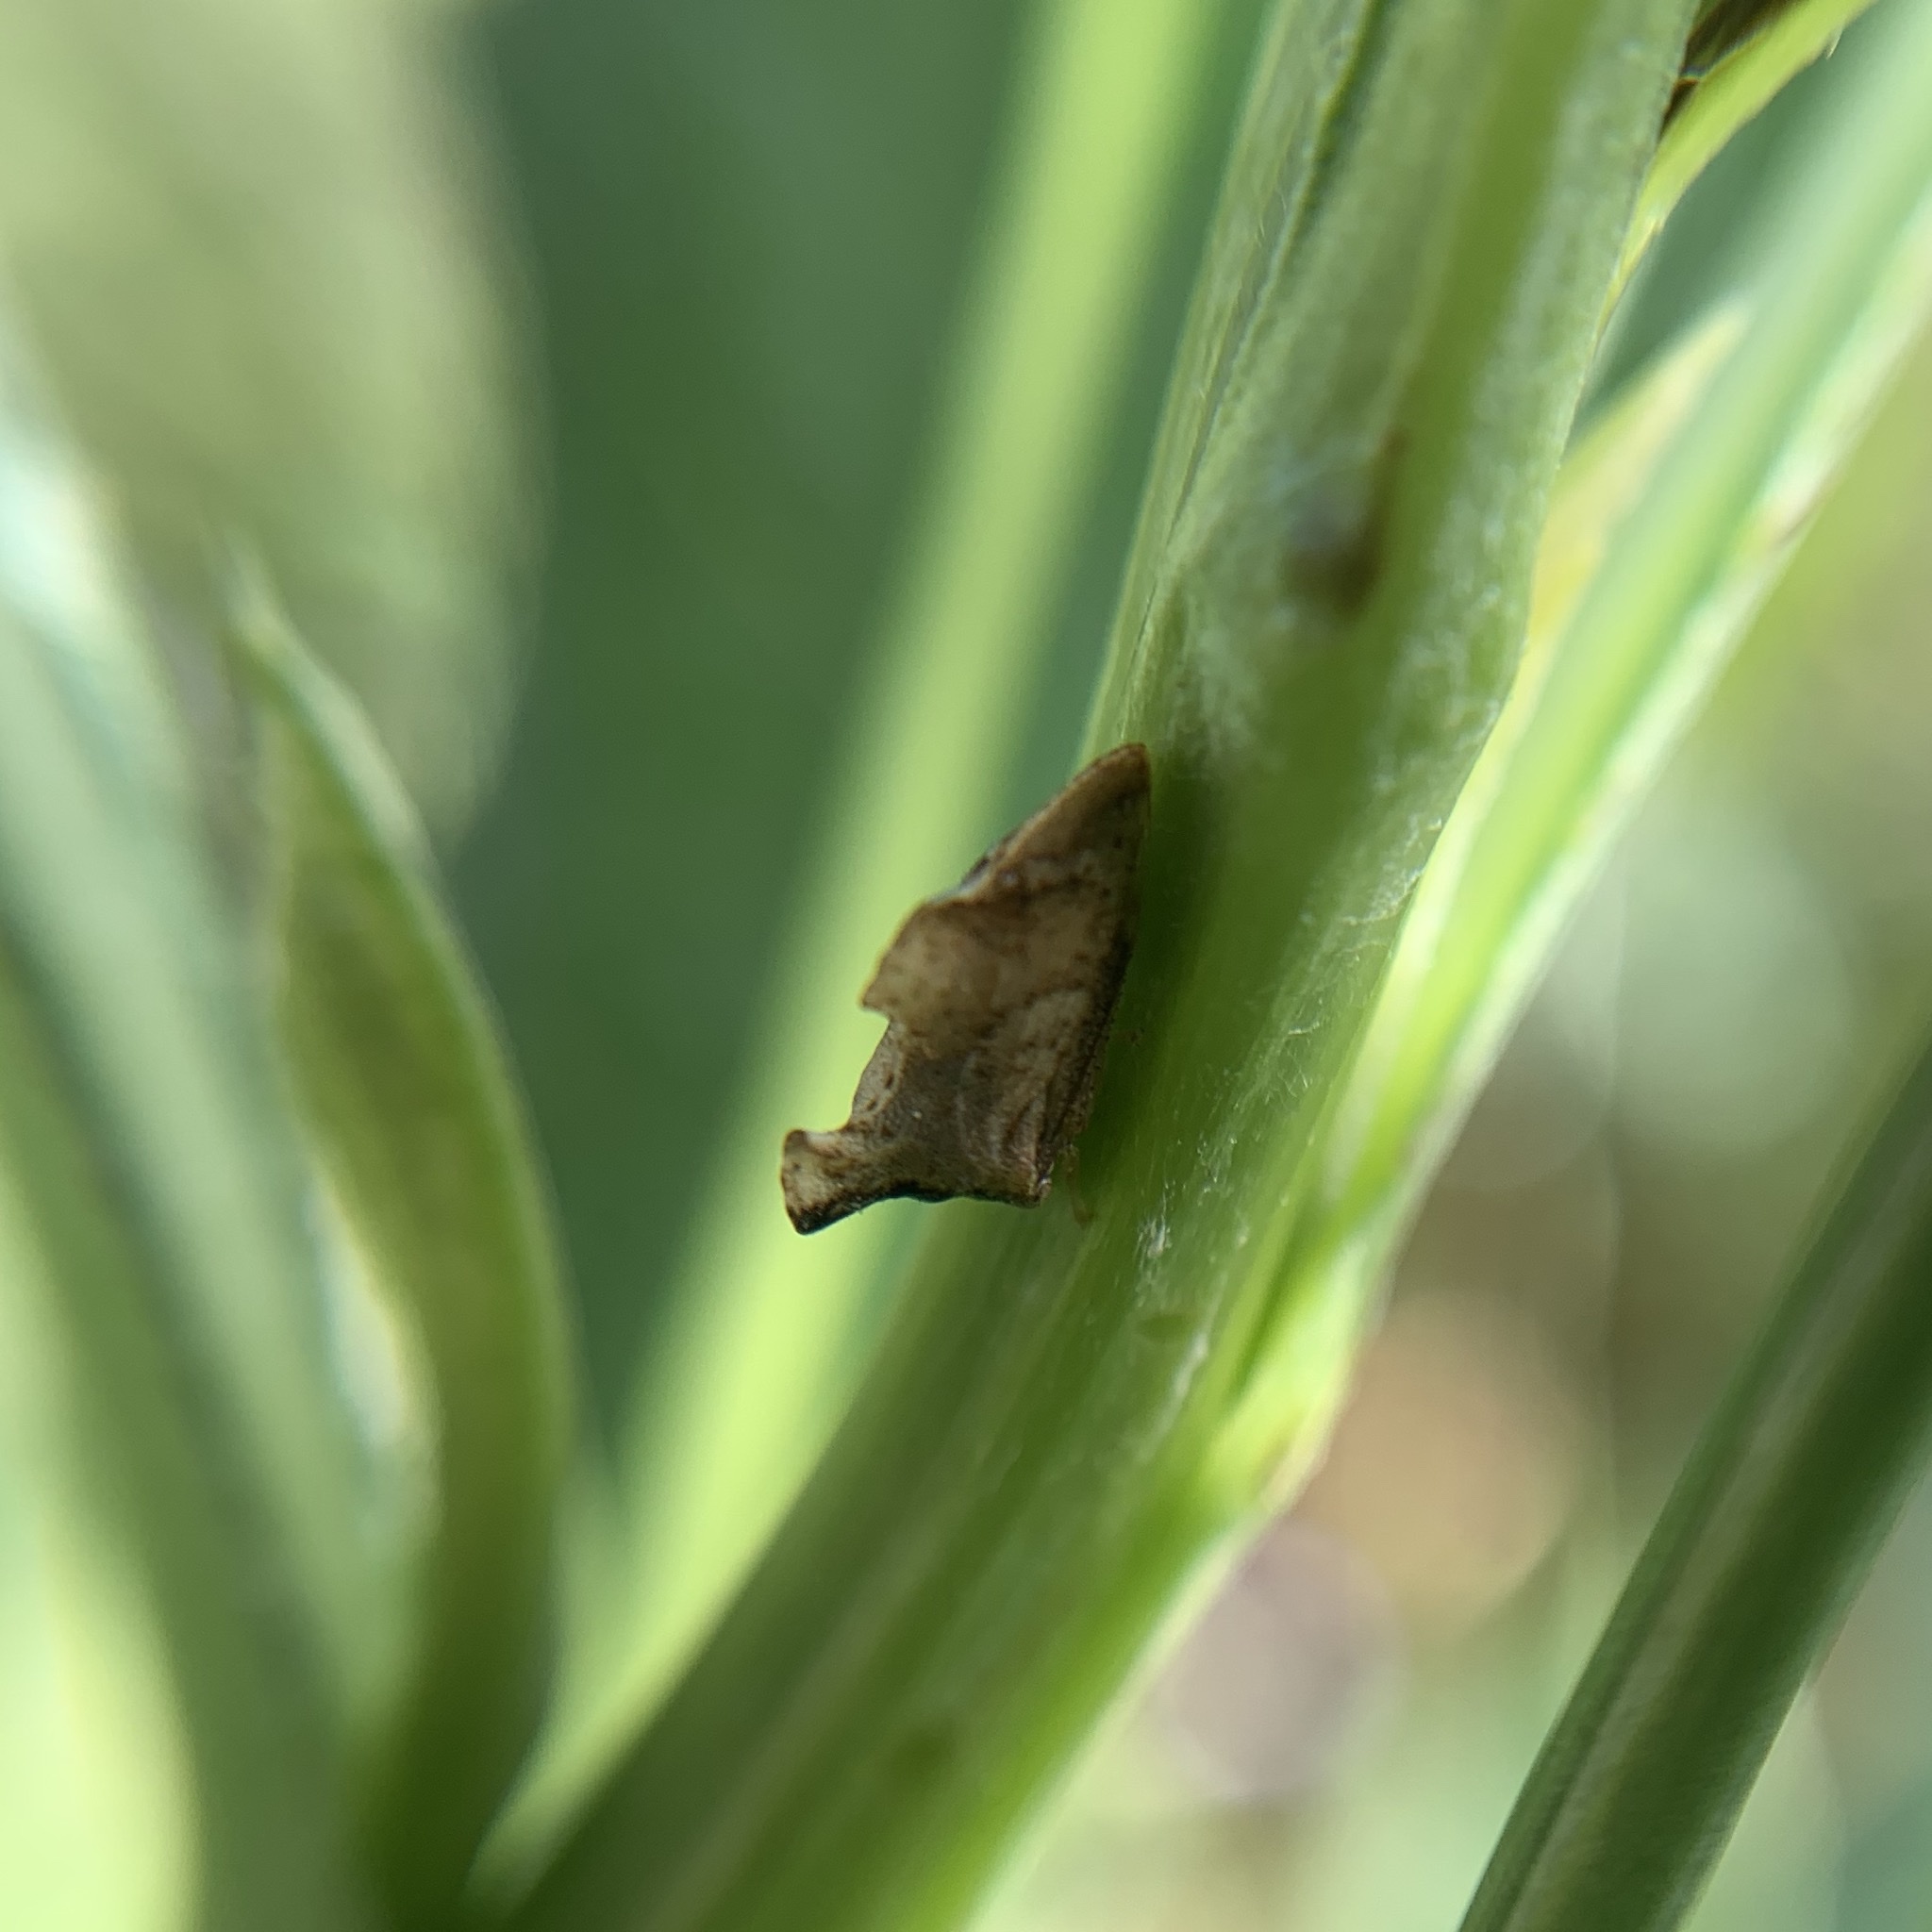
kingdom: Animalia
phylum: Arthropoda
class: Insecta
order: Hemiptera
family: Membracidae
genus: Entylia
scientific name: Entylia carinata
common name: Keeled treehopper
